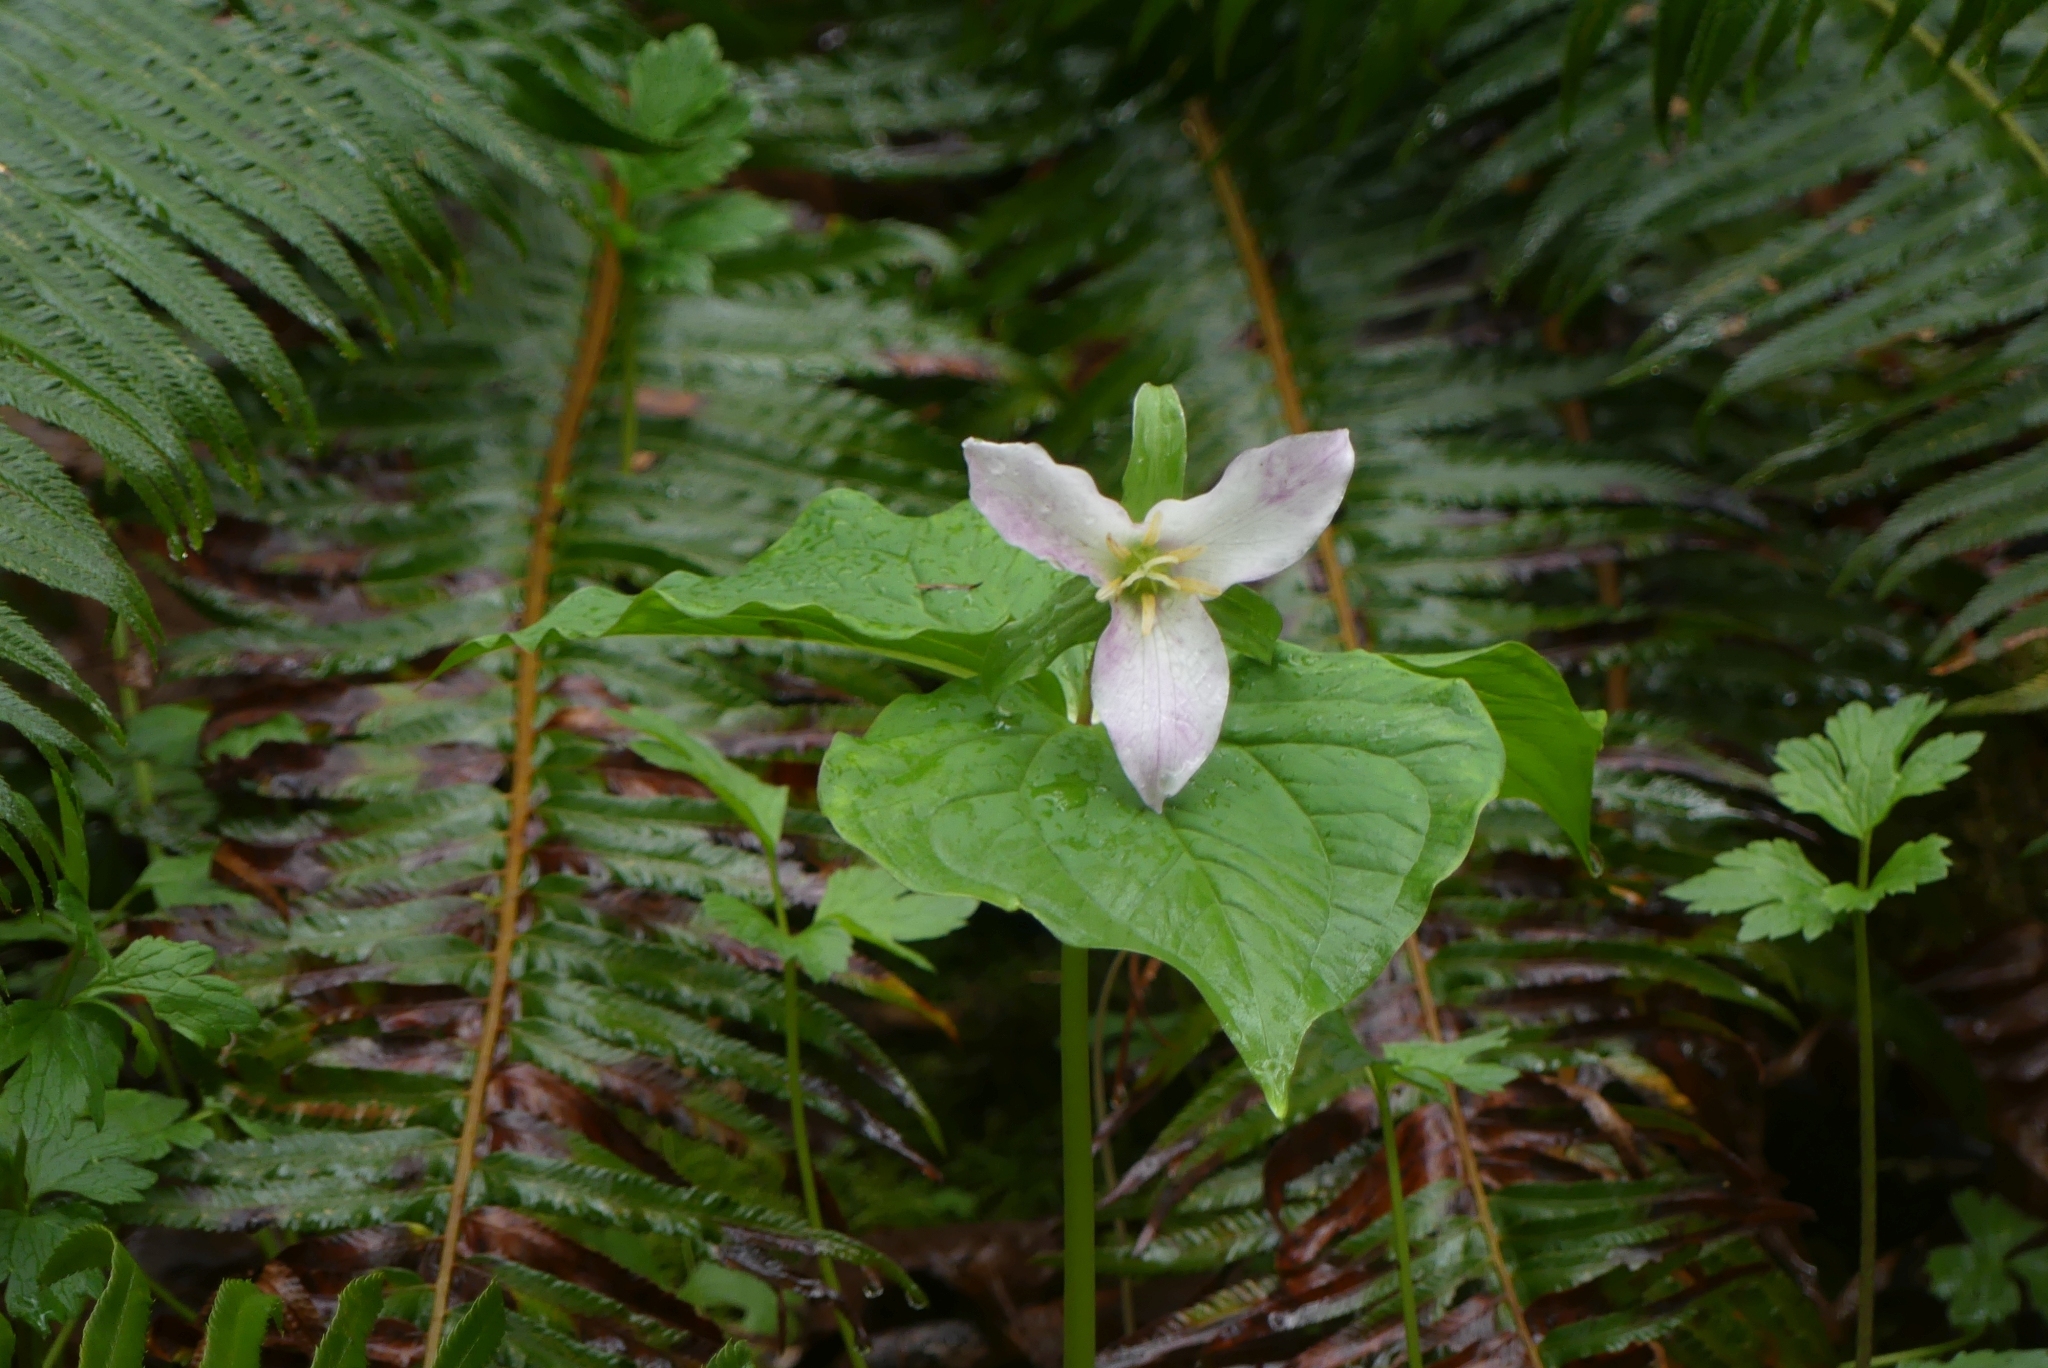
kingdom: Plantae
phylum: Tracheophyta
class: Liliopsida
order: Liliales
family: Melanthiaceae
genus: Trillium
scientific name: Trillium ovatum
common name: Pacific trillium
